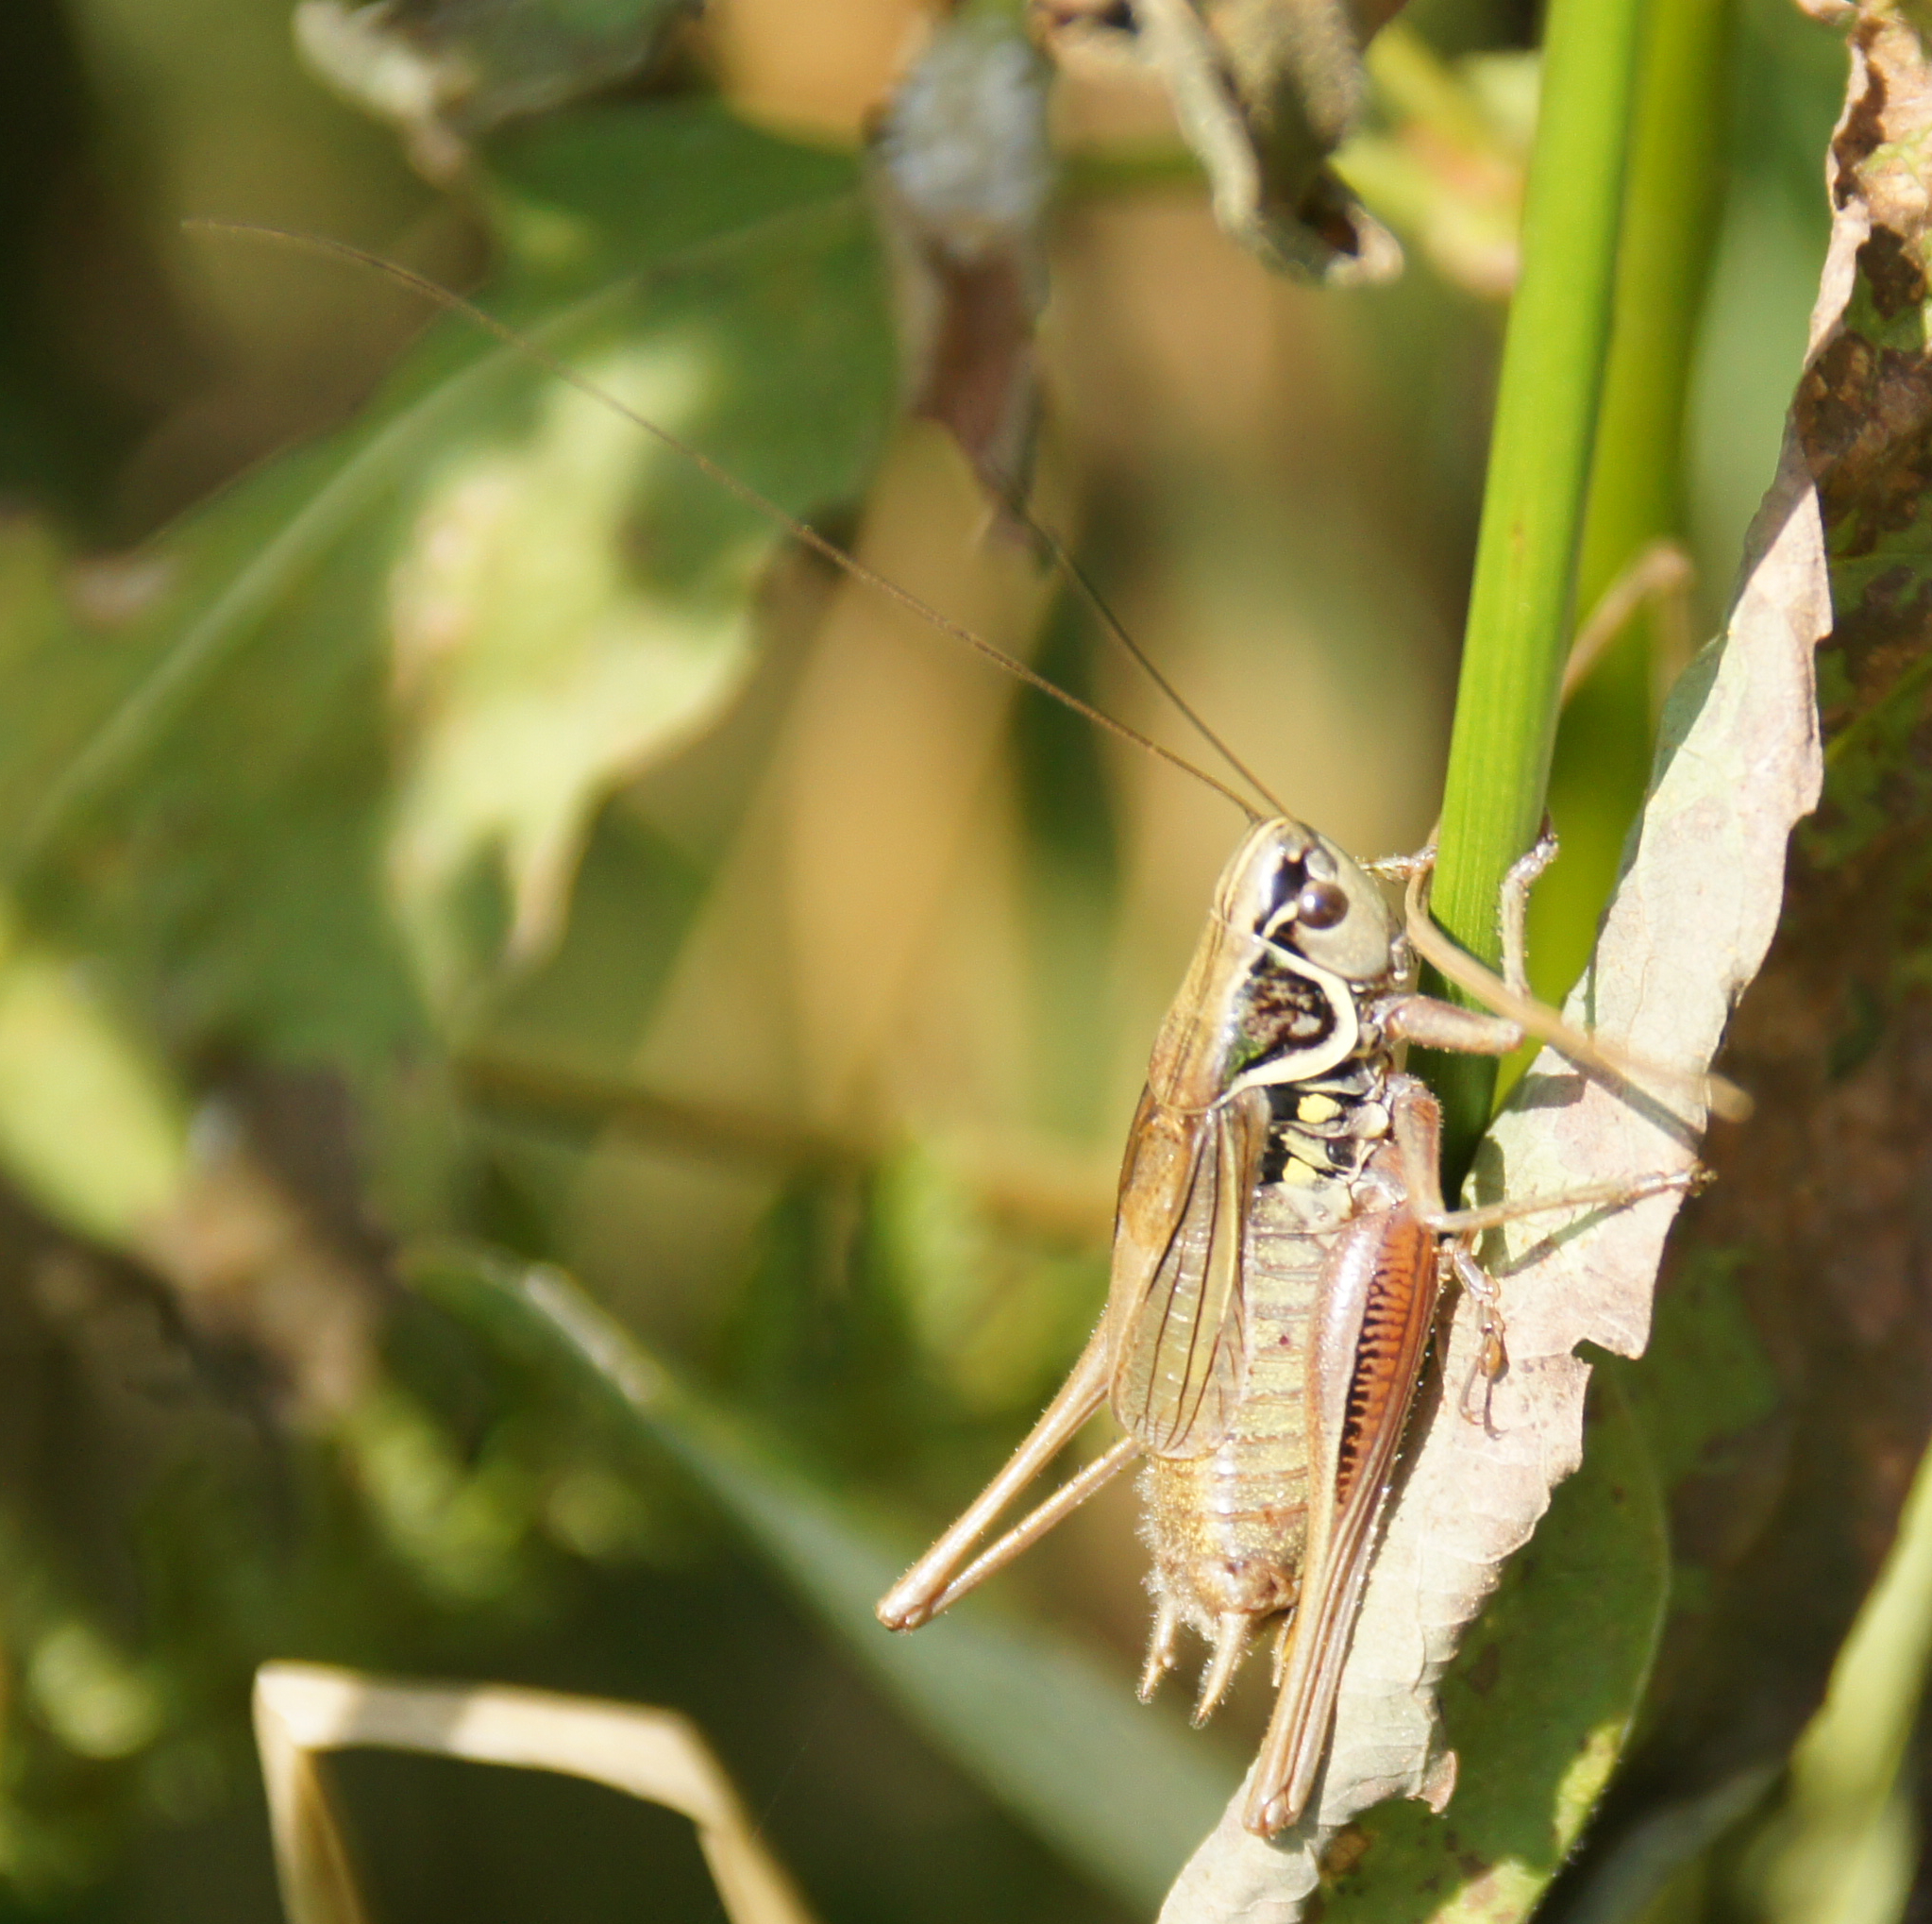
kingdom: Animalia
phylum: Arthropoda
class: Insecta
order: Orthoptera
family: Tettigoniidae
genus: Roeseliana
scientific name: Roeseliana roeselii
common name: Roesel's bush cricket
